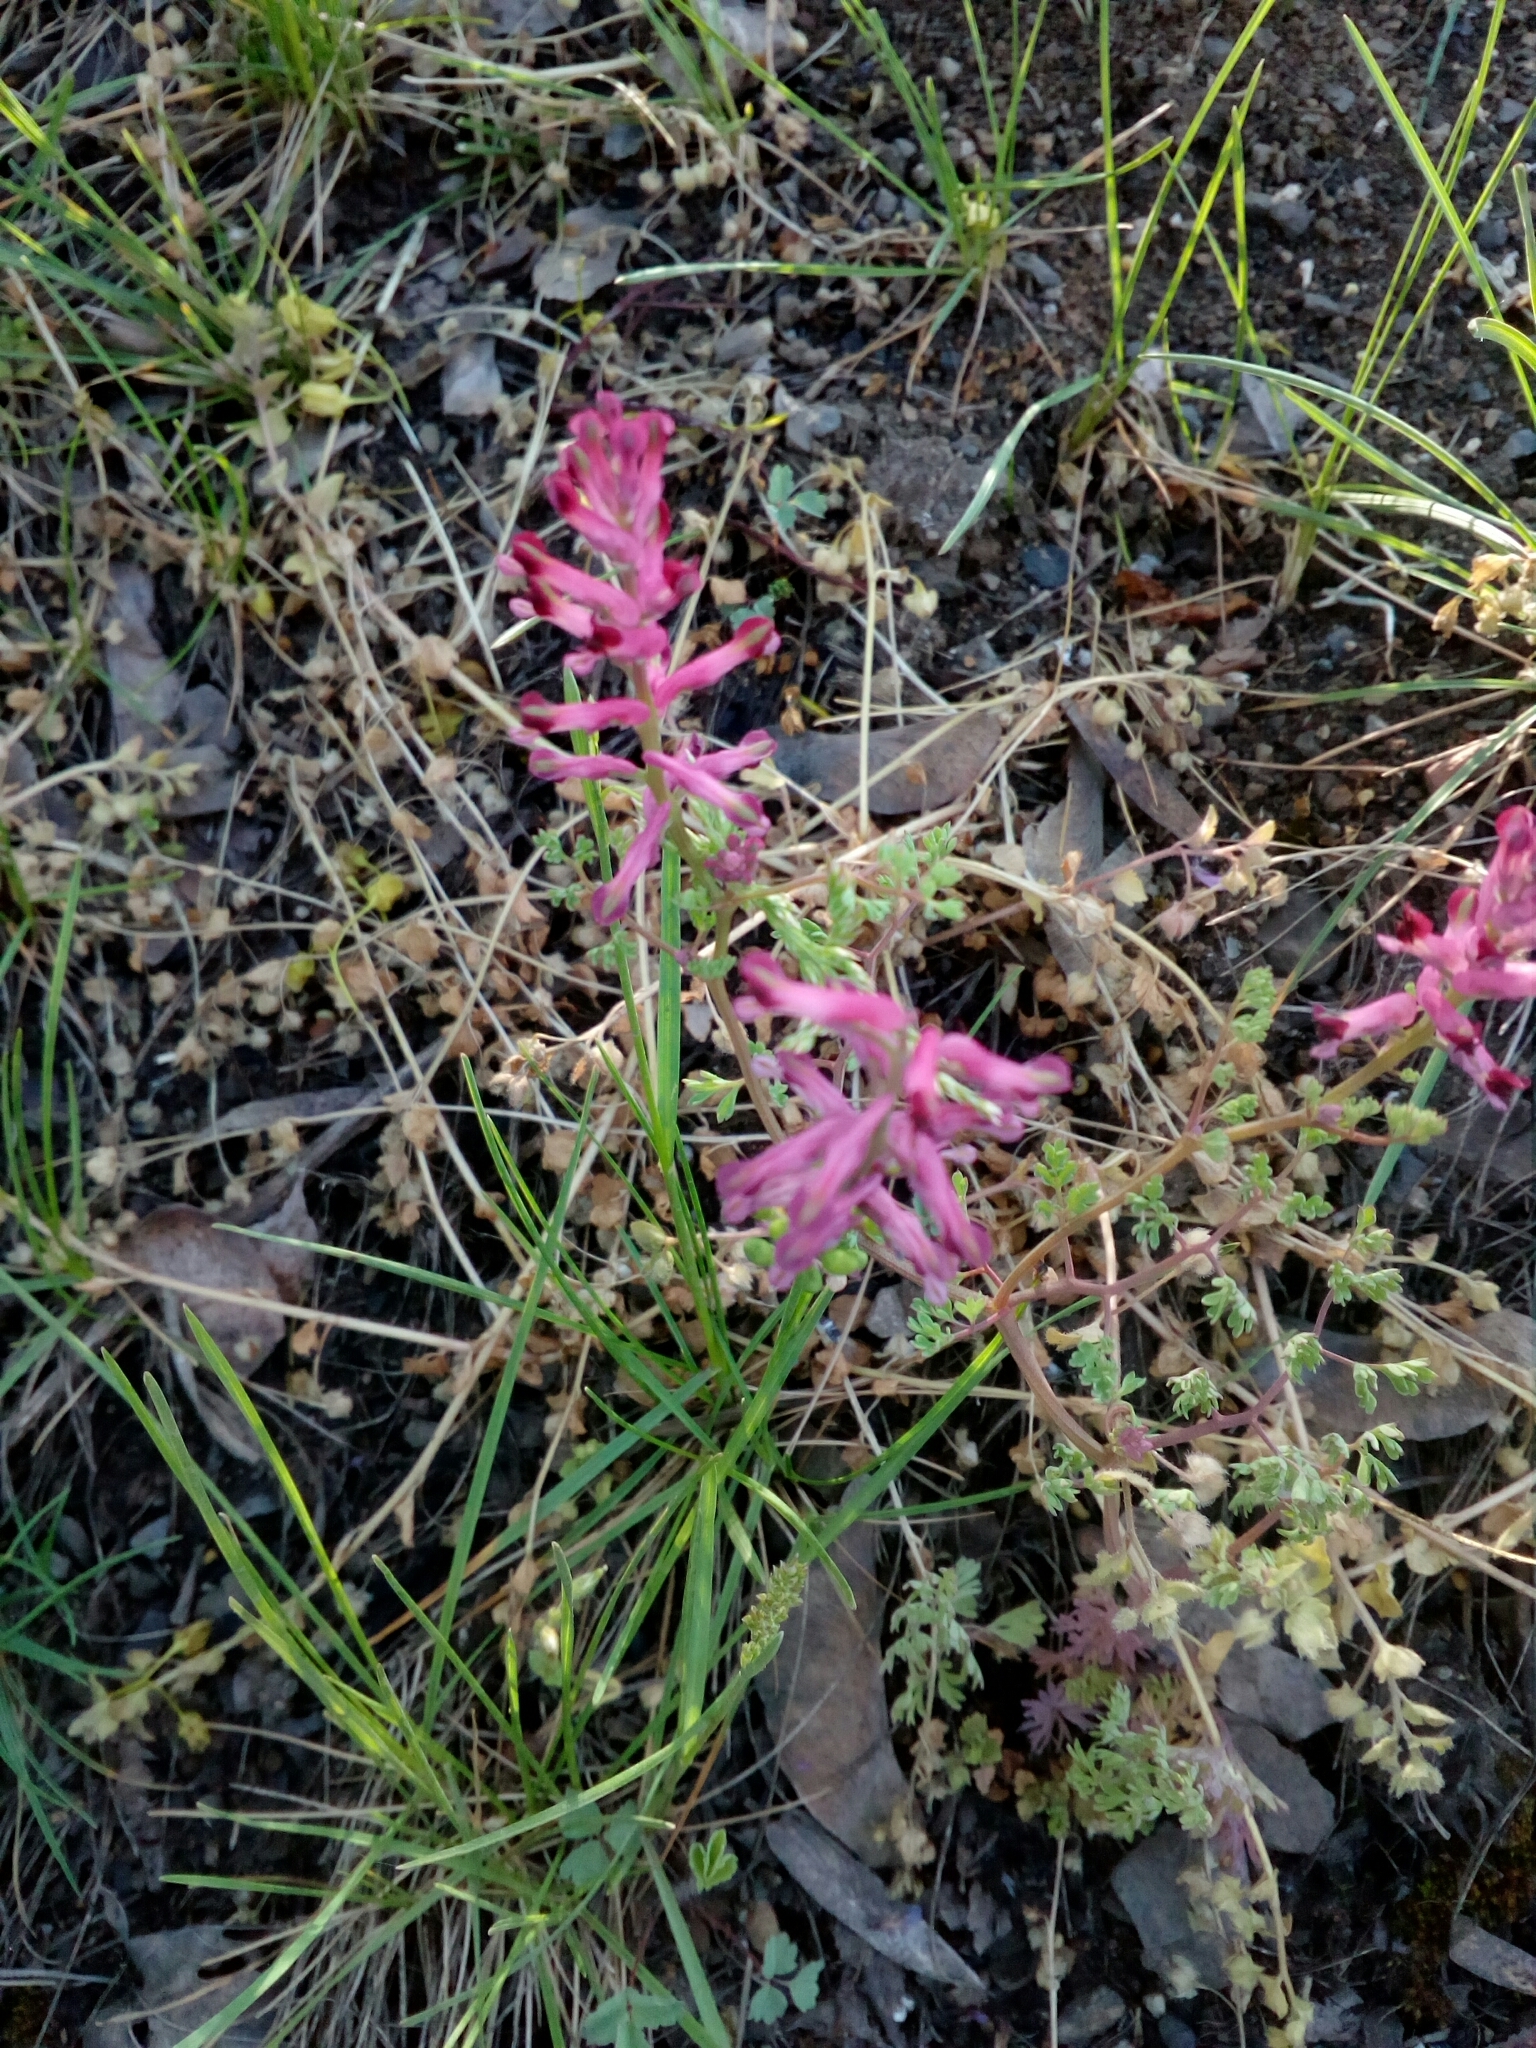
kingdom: Plantae
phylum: Tracheophyta
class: Magnoliopsida
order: Ranunculales
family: Papaveraceae
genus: Fumaria
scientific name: Fumaria officinalis
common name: Common fumitory
